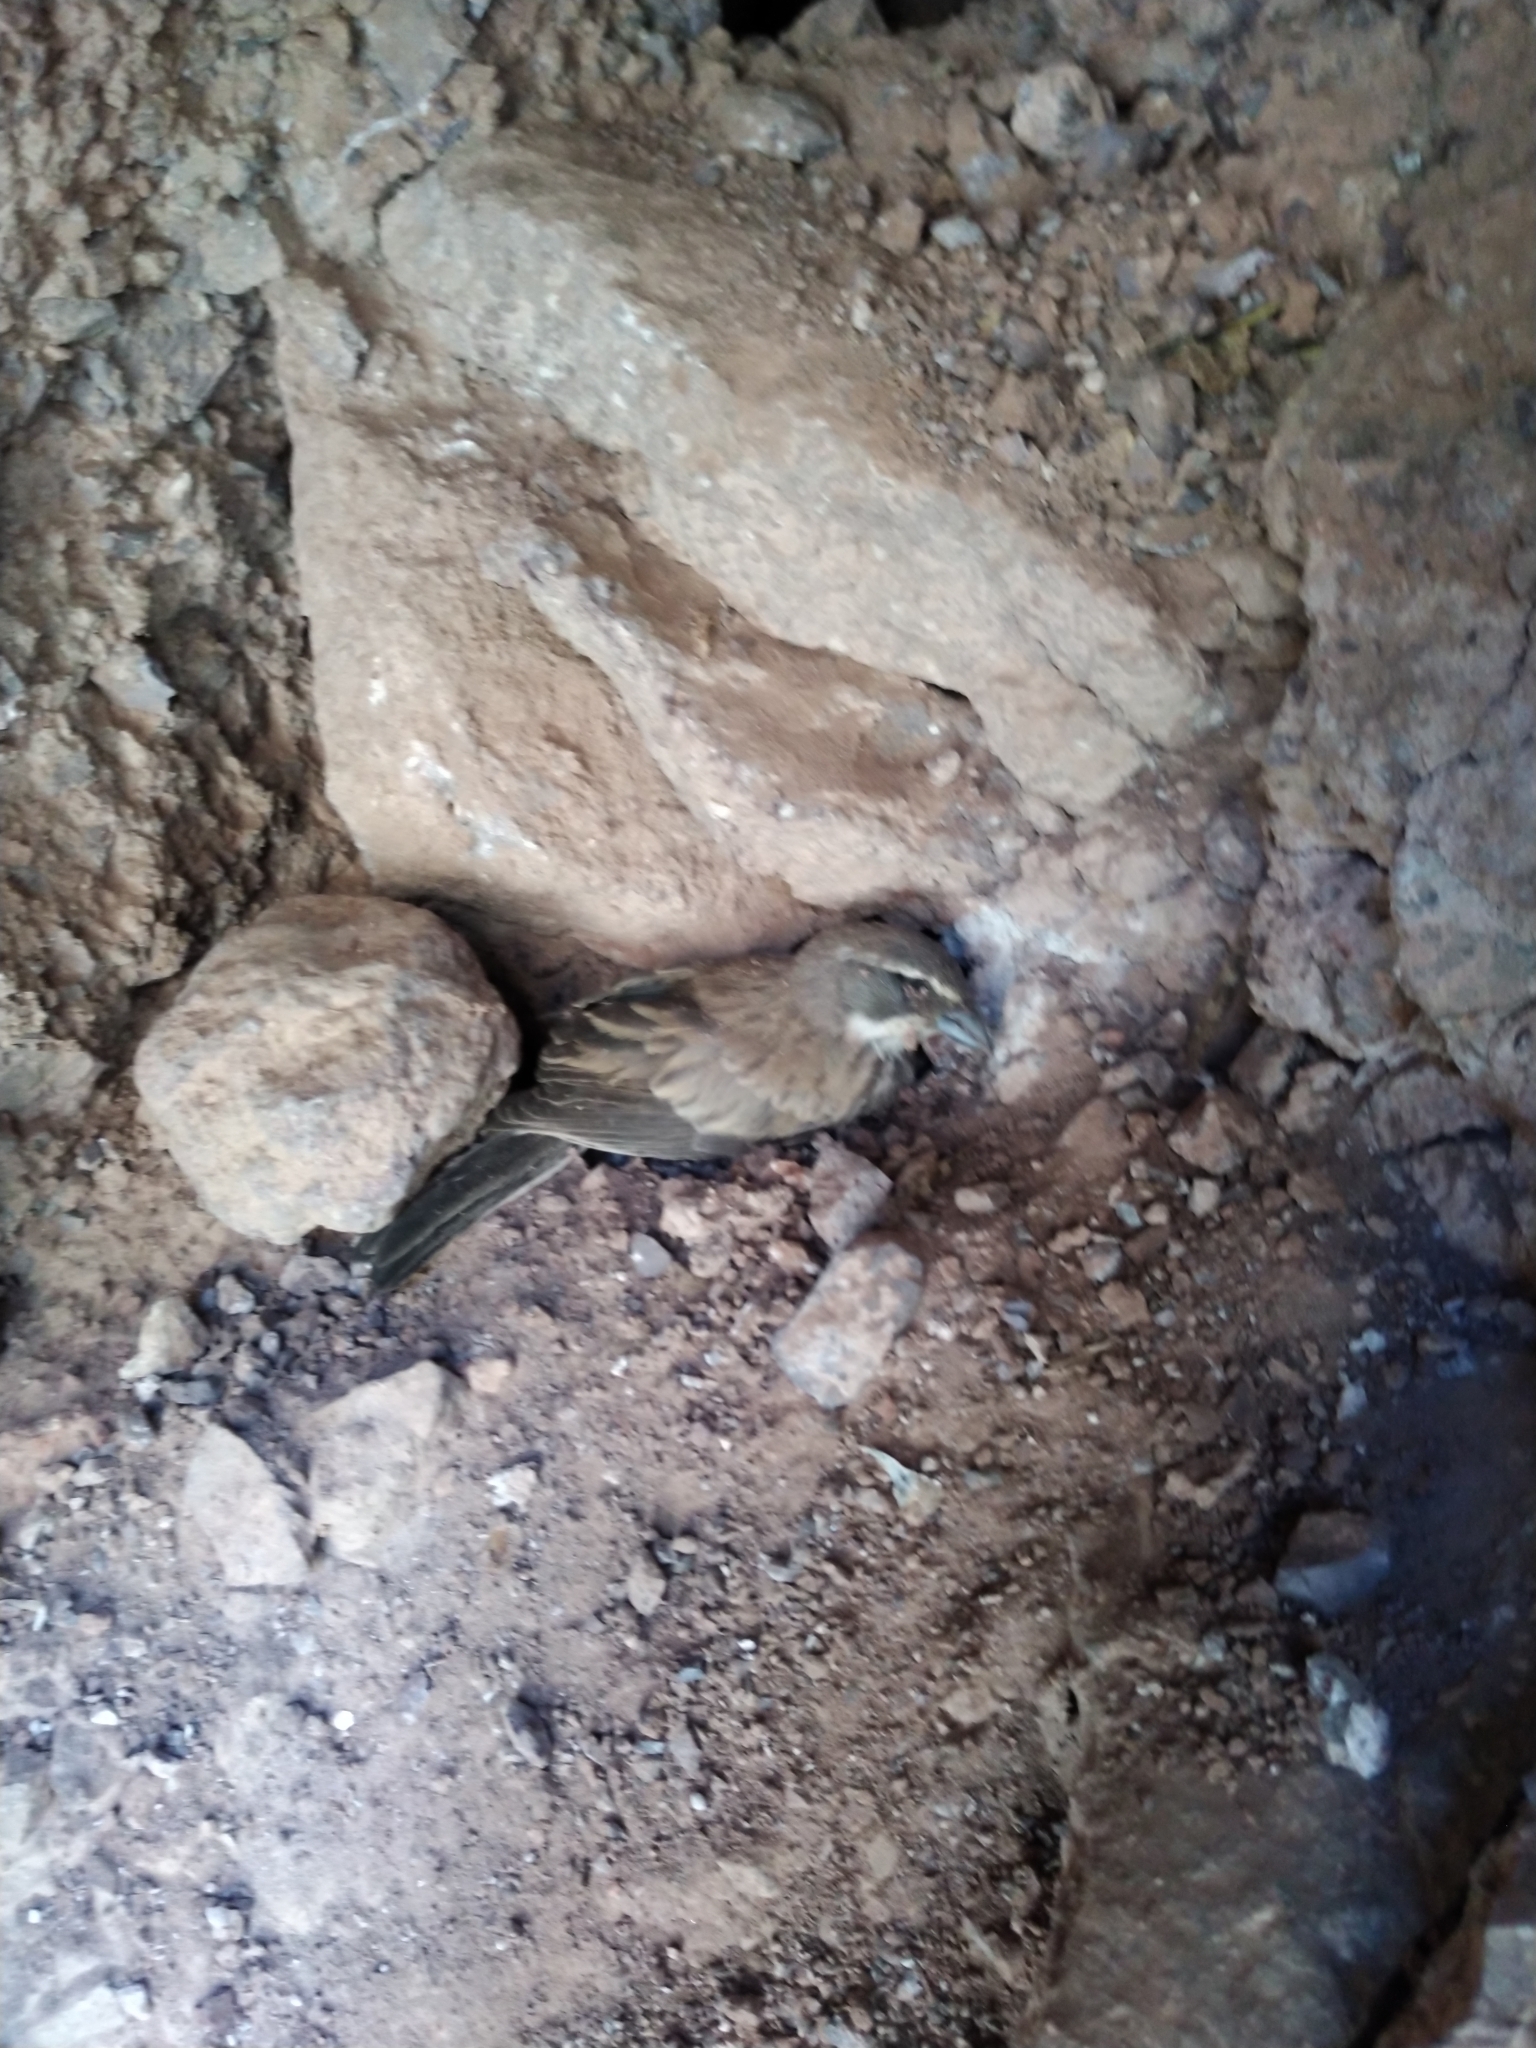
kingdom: Animalia
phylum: Chordata
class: Aves
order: Passeriformes
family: Passerellidae
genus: Amphispiza
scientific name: Amphispiza bilineata
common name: Black-throated sparrow
